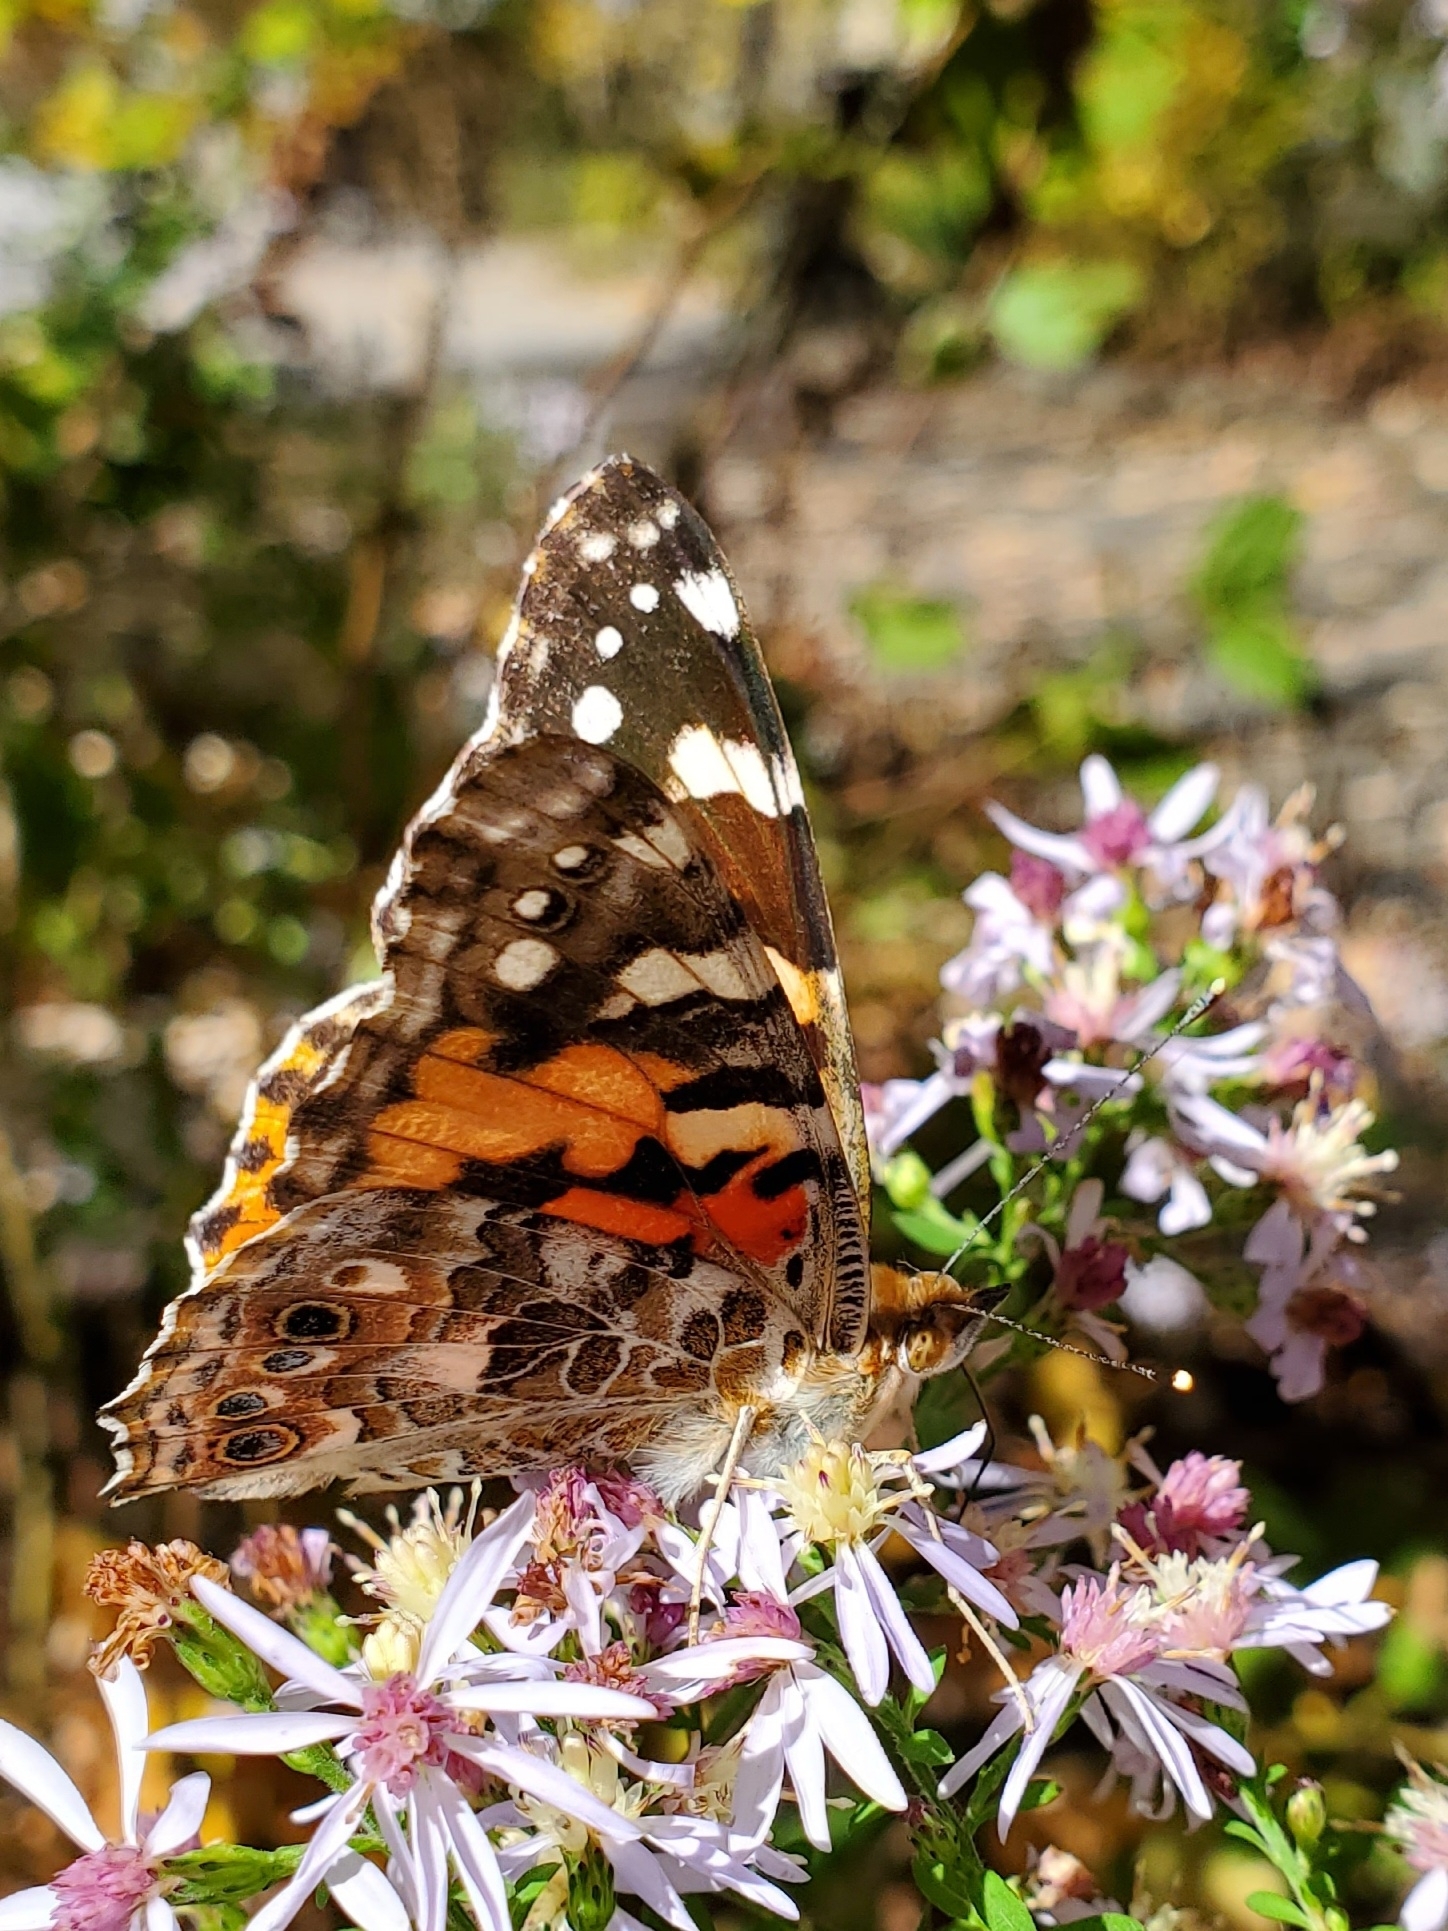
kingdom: Animalia
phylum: Arthropoda
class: Insecta
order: Lepidoptera
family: Nymphalidae
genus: Vanessa
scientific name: Vanessa cardui
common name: Painted lady
